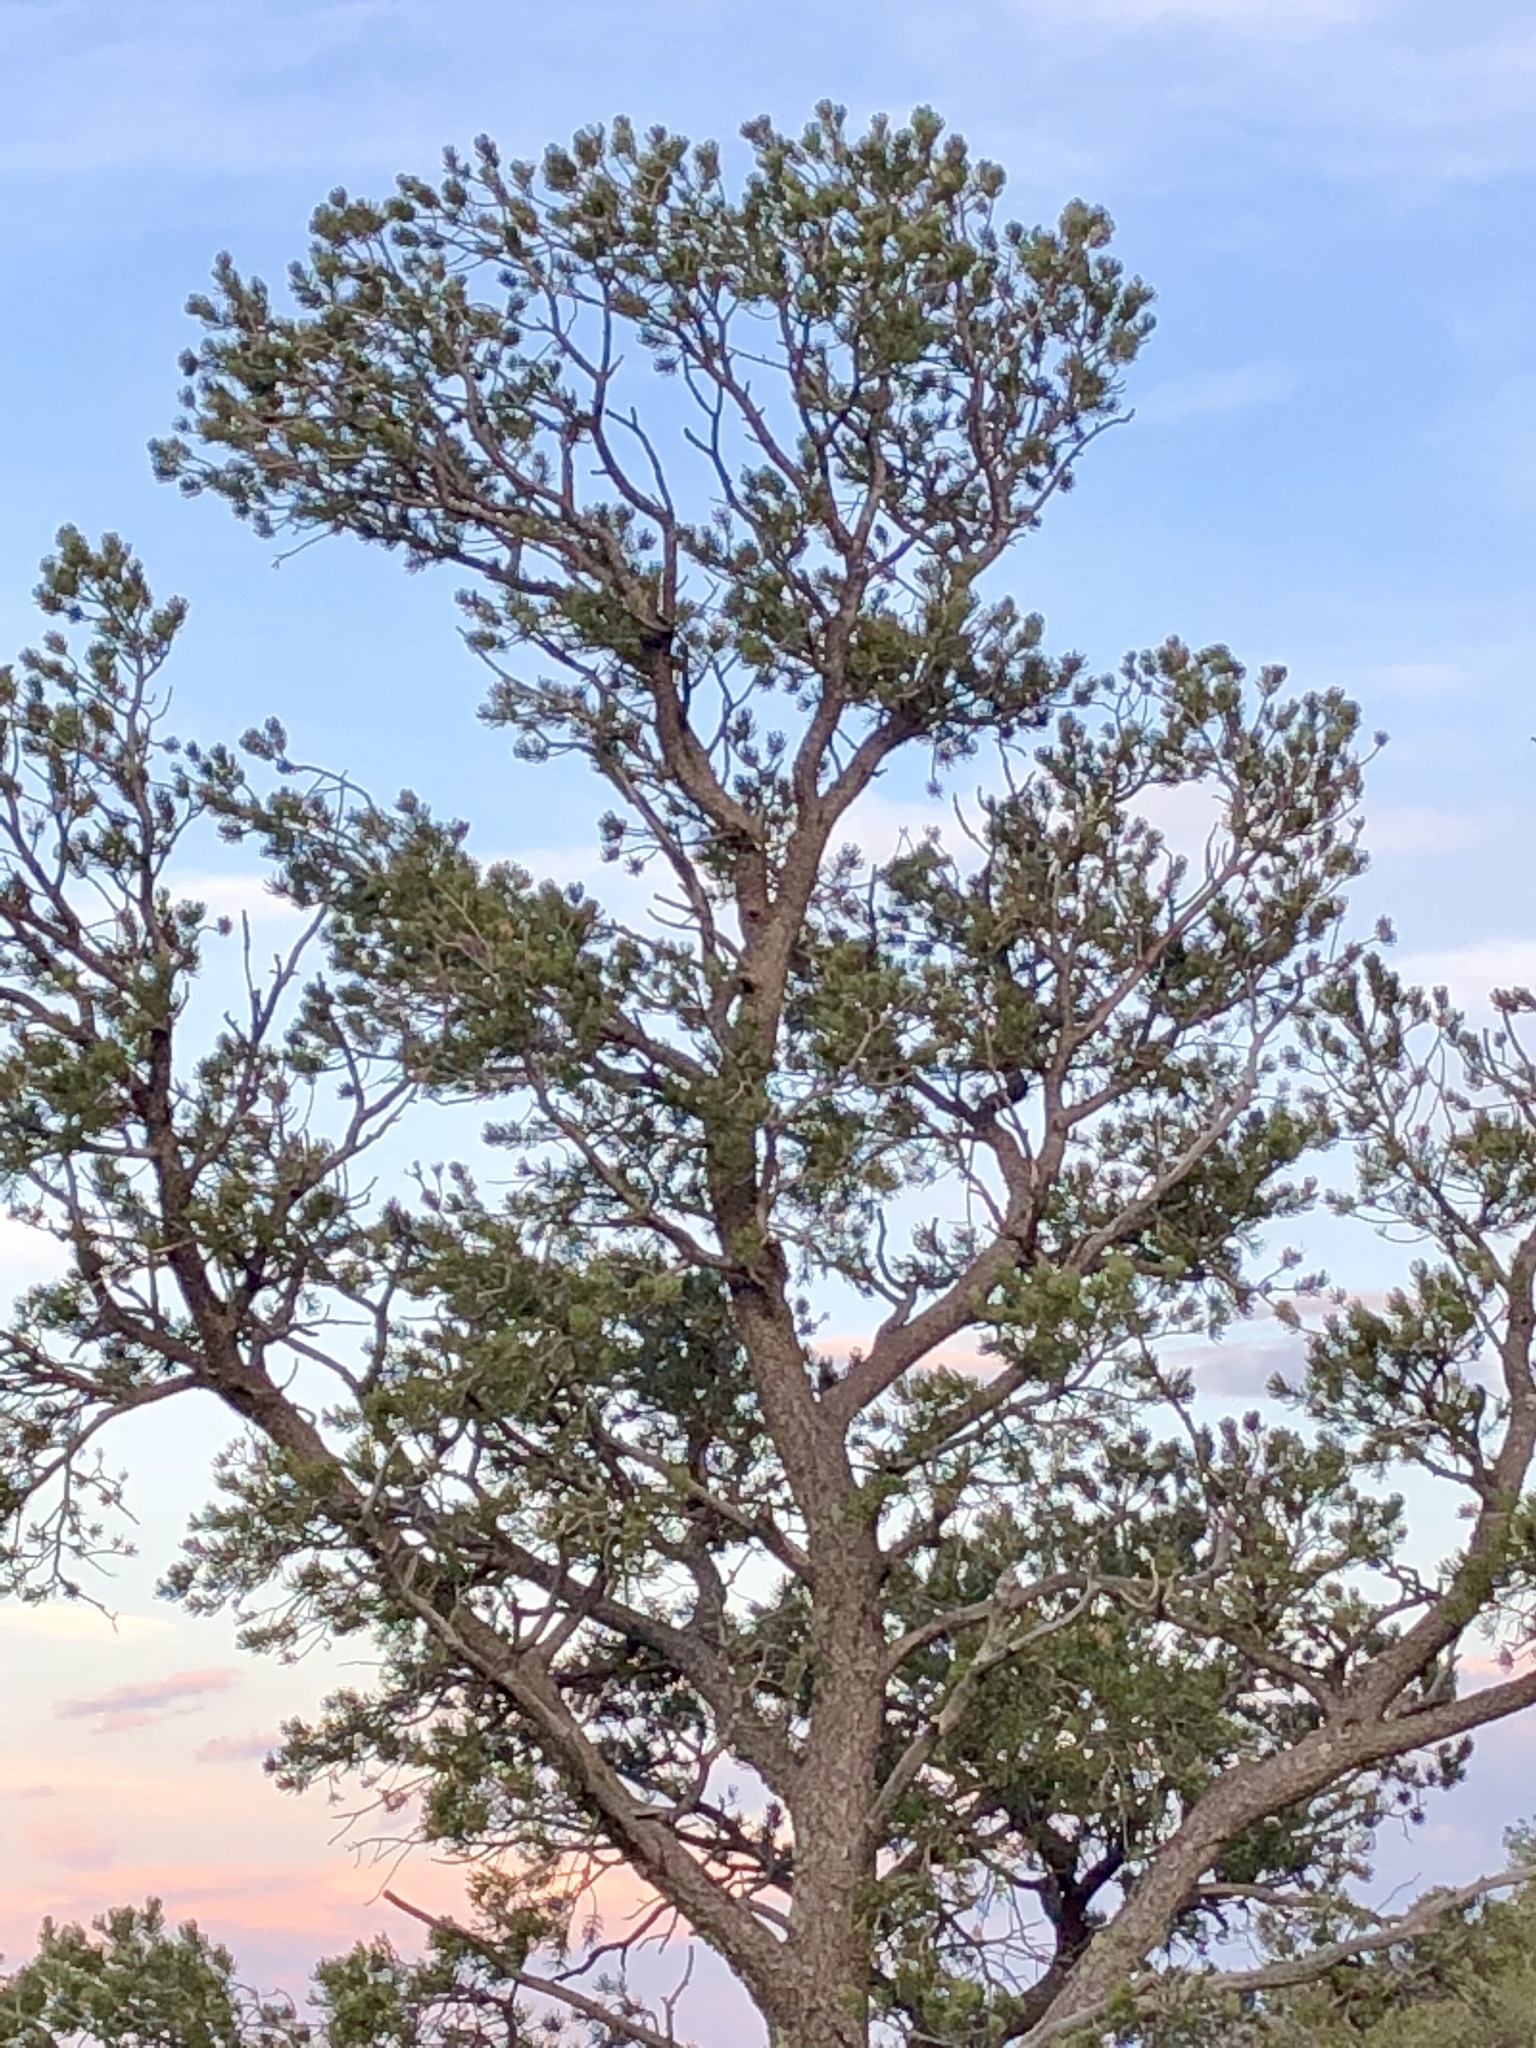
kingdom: Plantae
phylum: Tracheophyta
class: Pinopsida
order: Pinales
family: Pinaceae
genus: Pinus
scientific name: Pinus edulis
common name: Colorado pinyon
